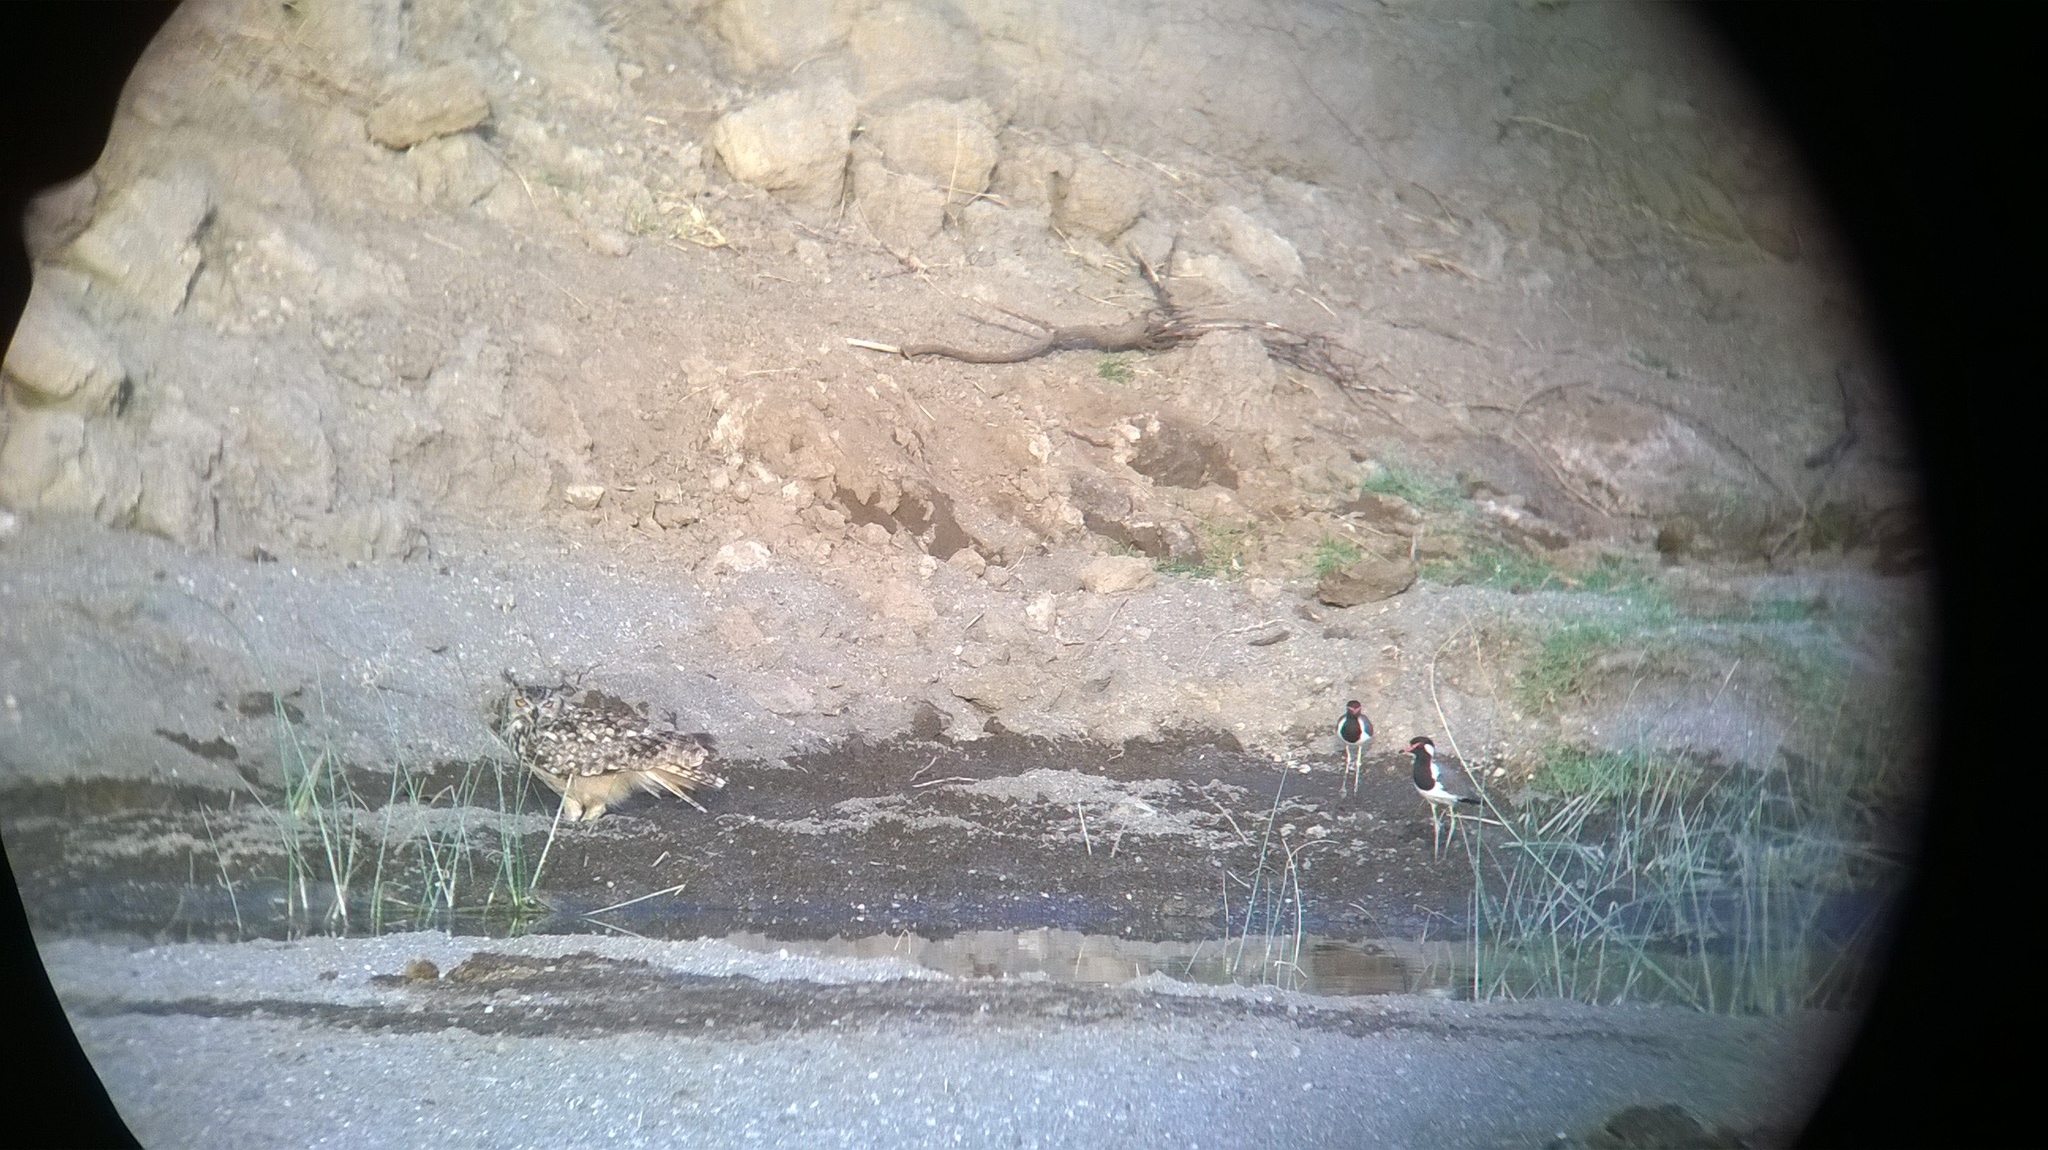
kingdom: Animalia
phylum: Chordata
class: Aves
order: Strigiformes
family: Strigidae
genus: Bubo
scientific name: Bubo bengalensis
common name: Indian eagle-owl
